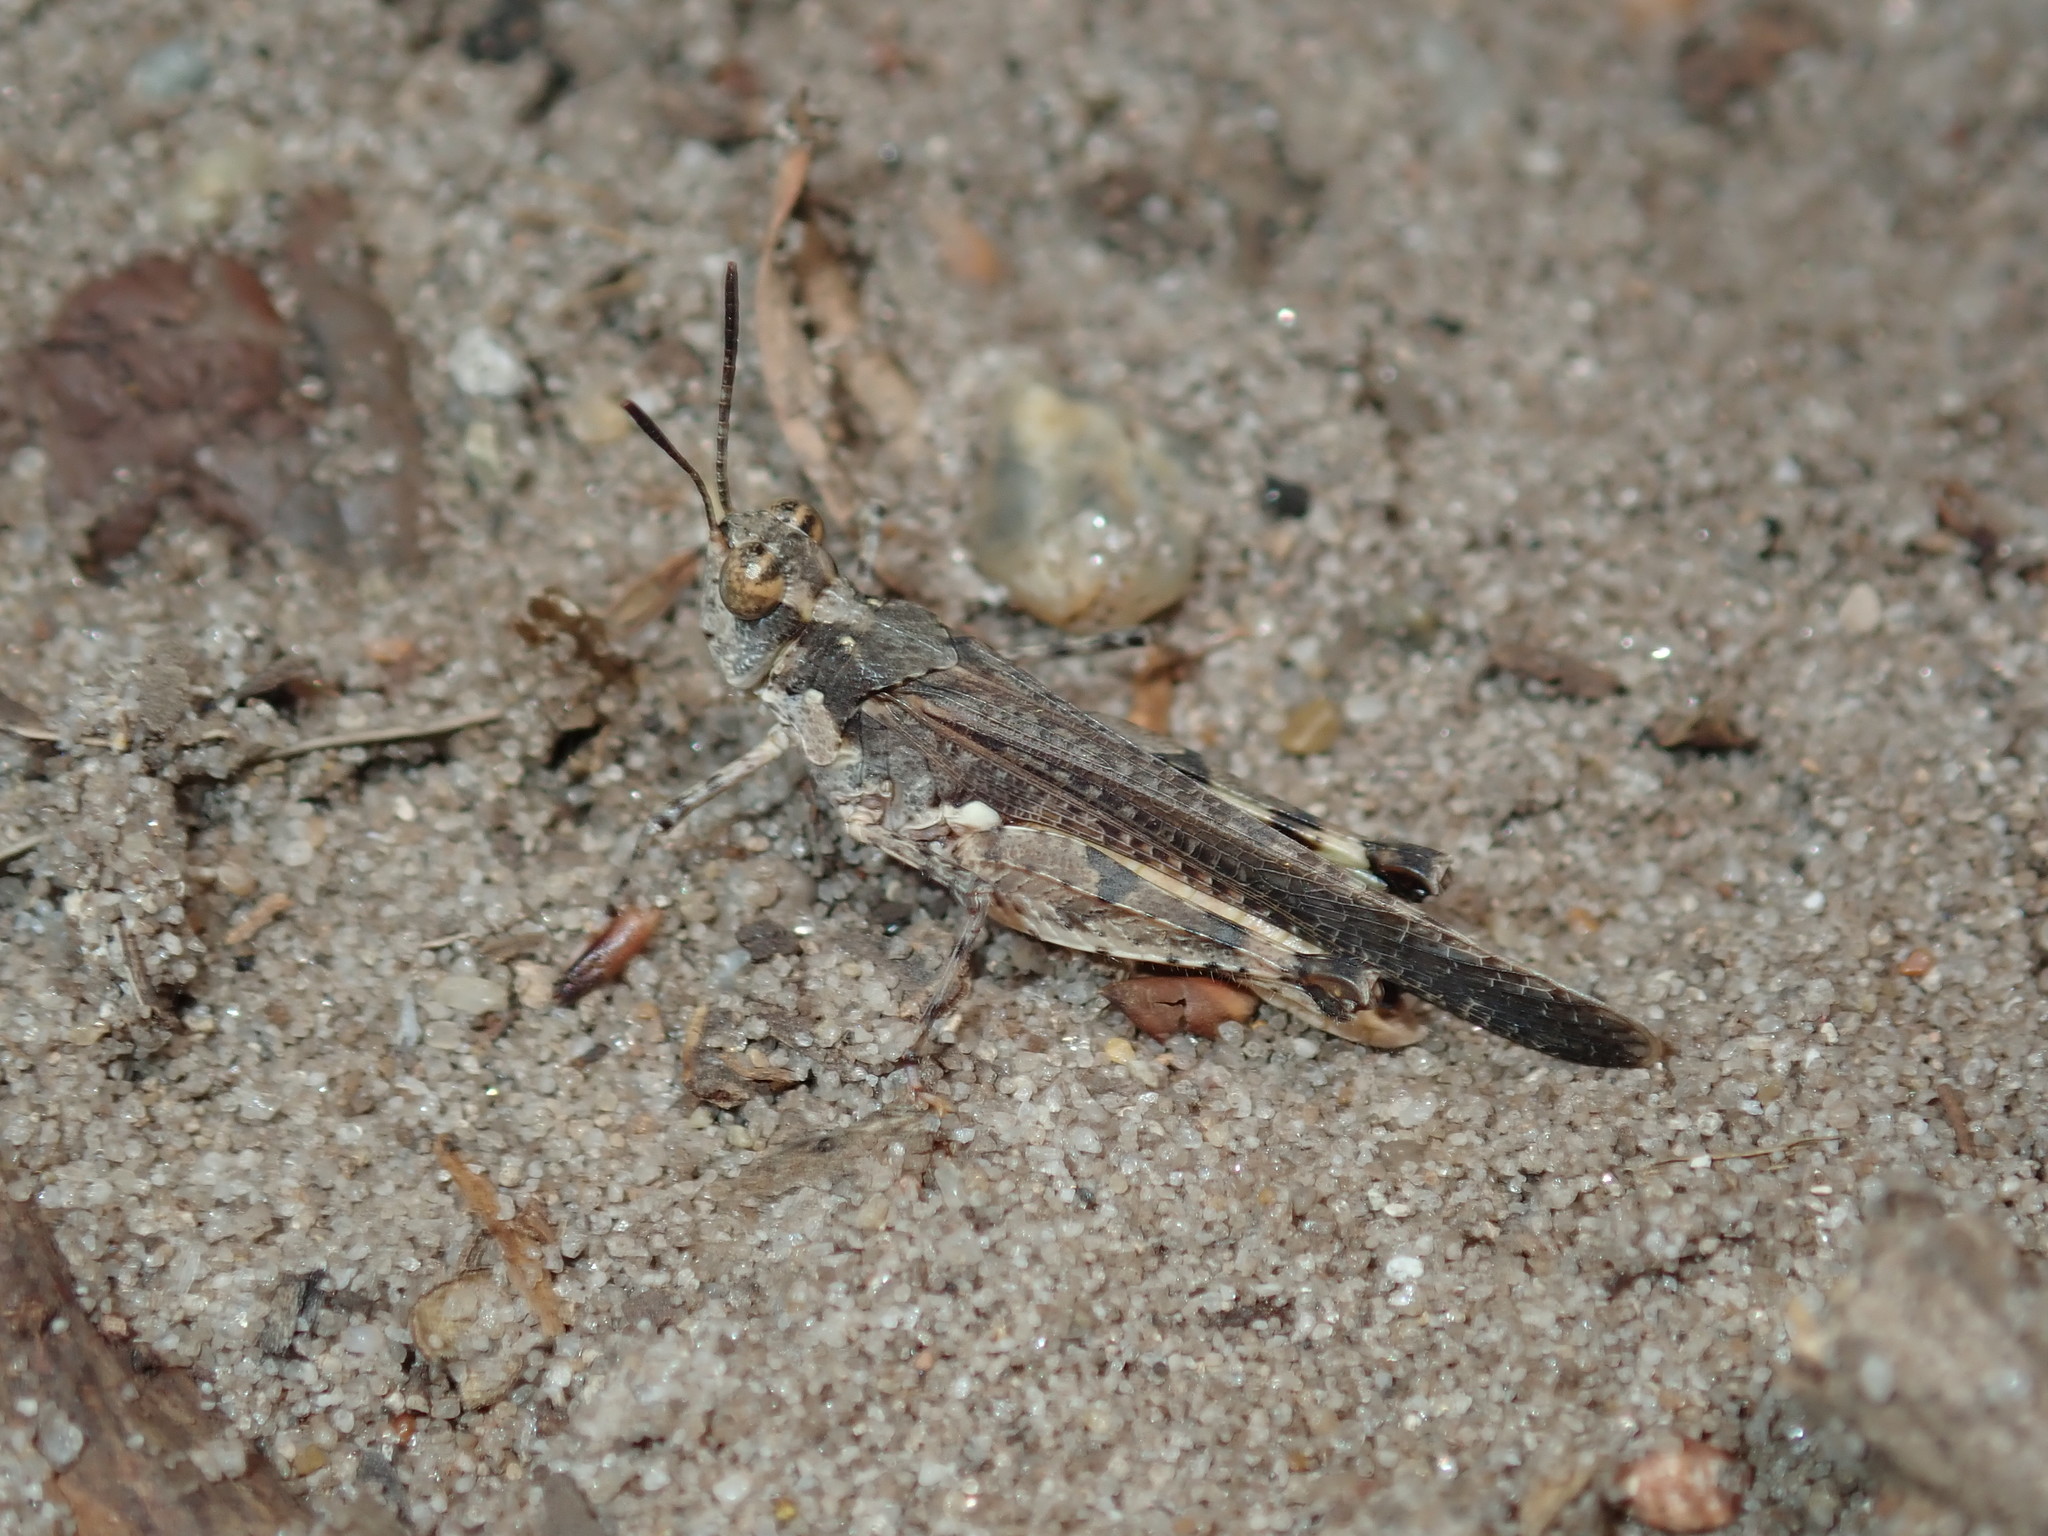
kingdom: Animalia
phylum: Arthropoda
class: Insecta
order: Orthoptera
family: Acrididae
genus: Pycnostictus
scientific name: Pycnostictus seriatus
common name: Common bandwing
